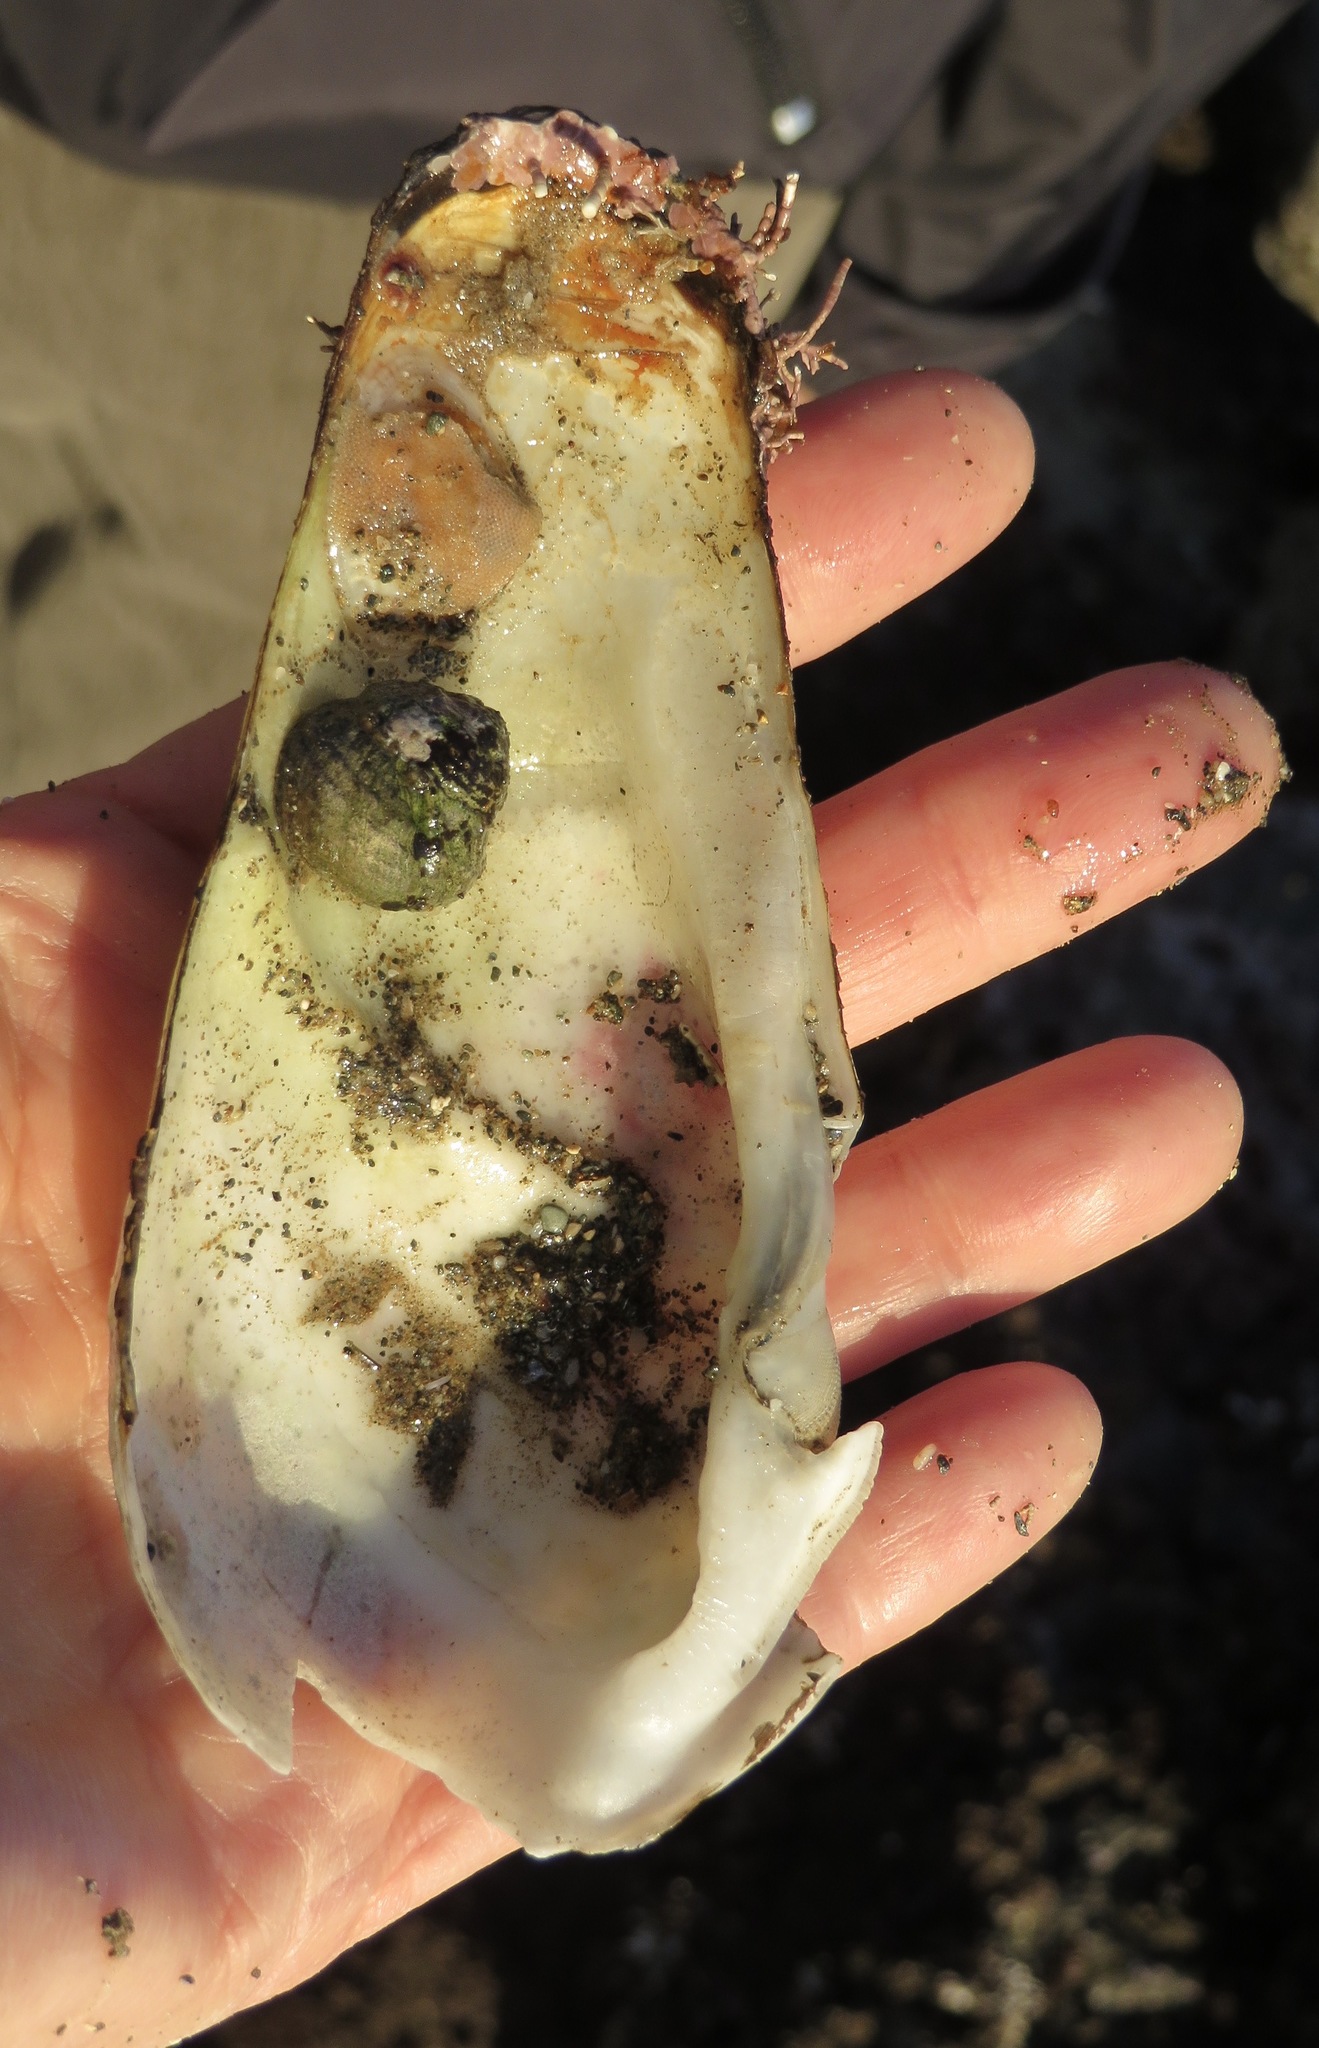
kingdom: Animalia
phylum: Mollusca
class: Bivalvia
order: Myida
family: Pholadidae
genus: Parapholas
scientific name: Parapholas californica
